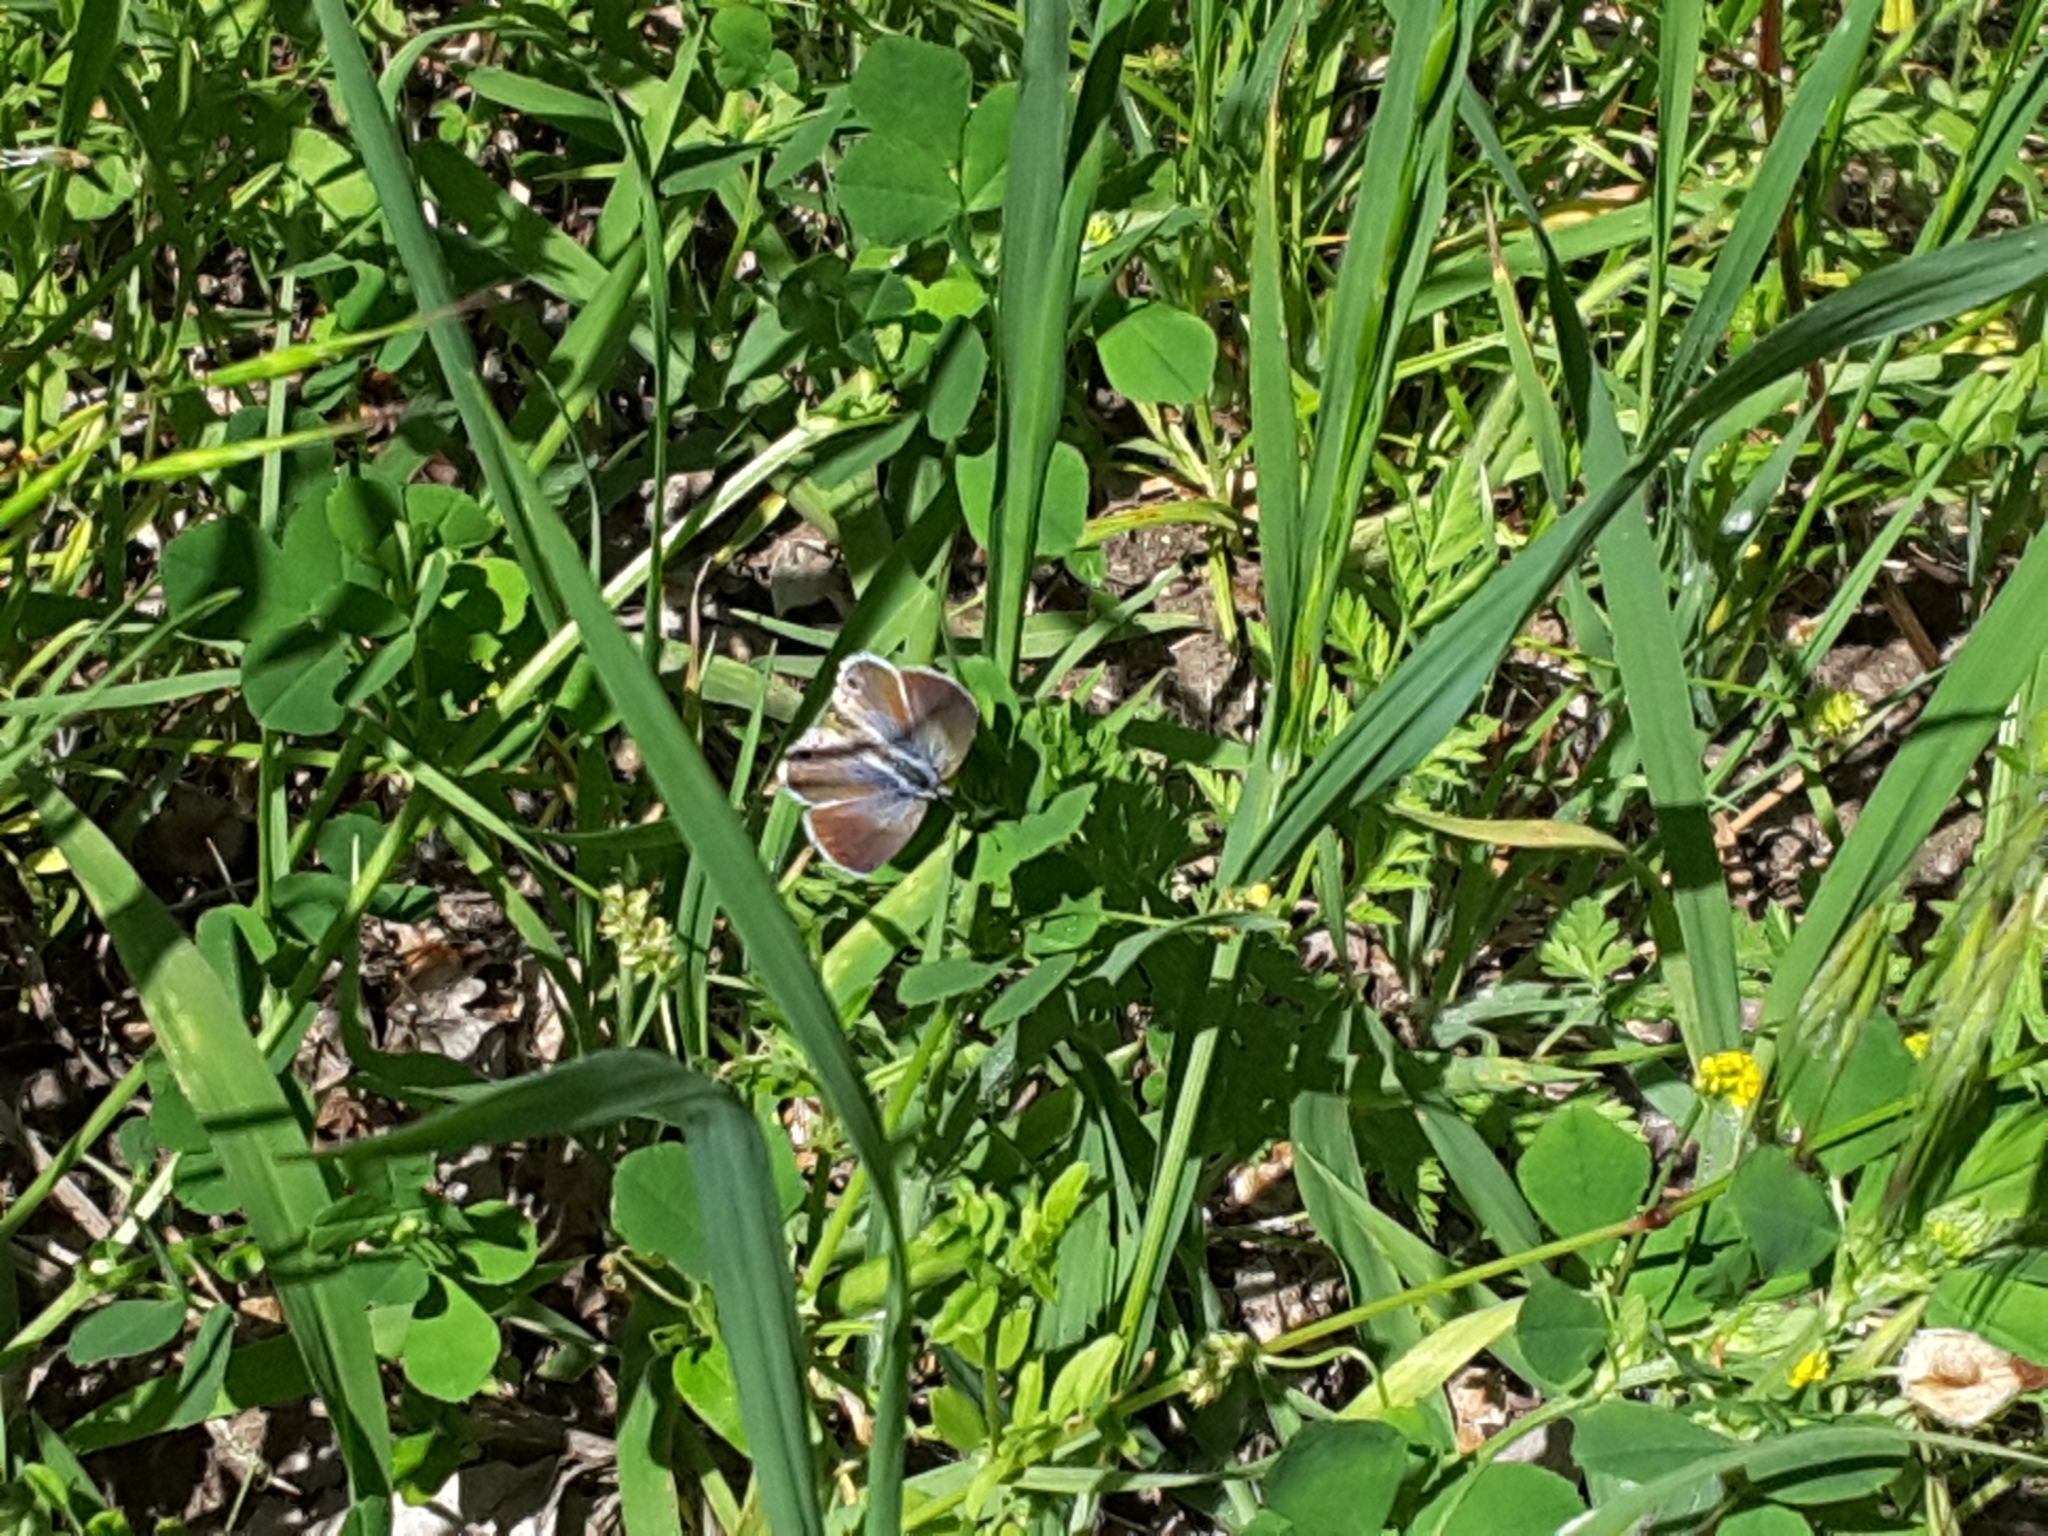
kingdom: Animalia
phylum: Arthropoda
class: Insecta
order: Lepidoptera
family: Lycaenidae
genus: Echinargus
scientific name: Echinargus isola
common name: Reakirt's blue
